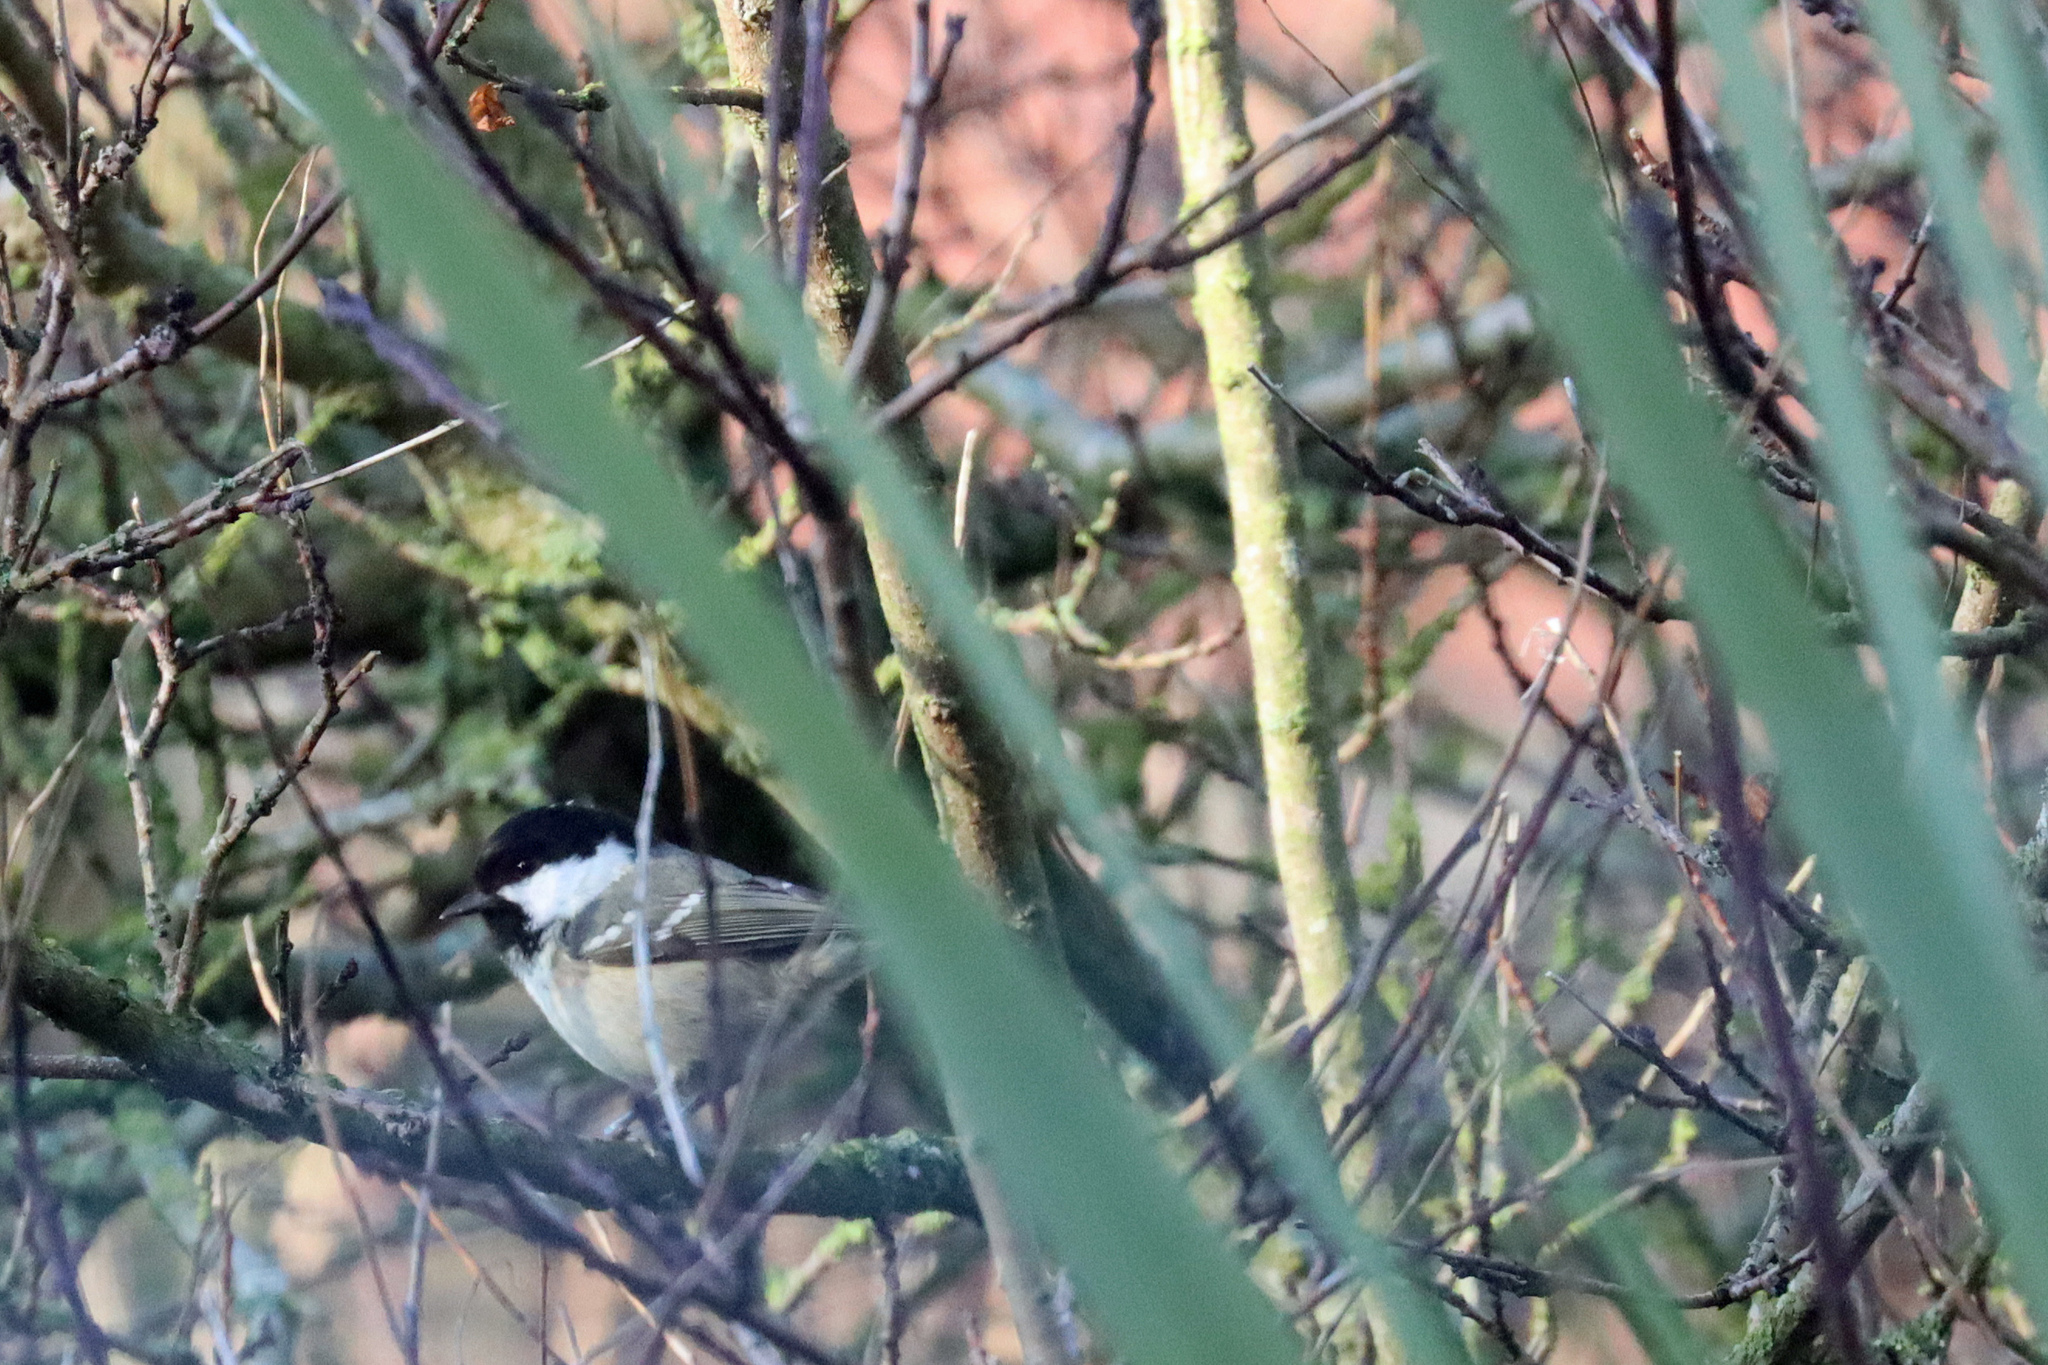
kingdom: Animalia
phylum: Chordata
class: Aves
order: Passeriformes
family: Paridae
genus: Periparus
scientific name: Periparus ater
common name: Coal tit
